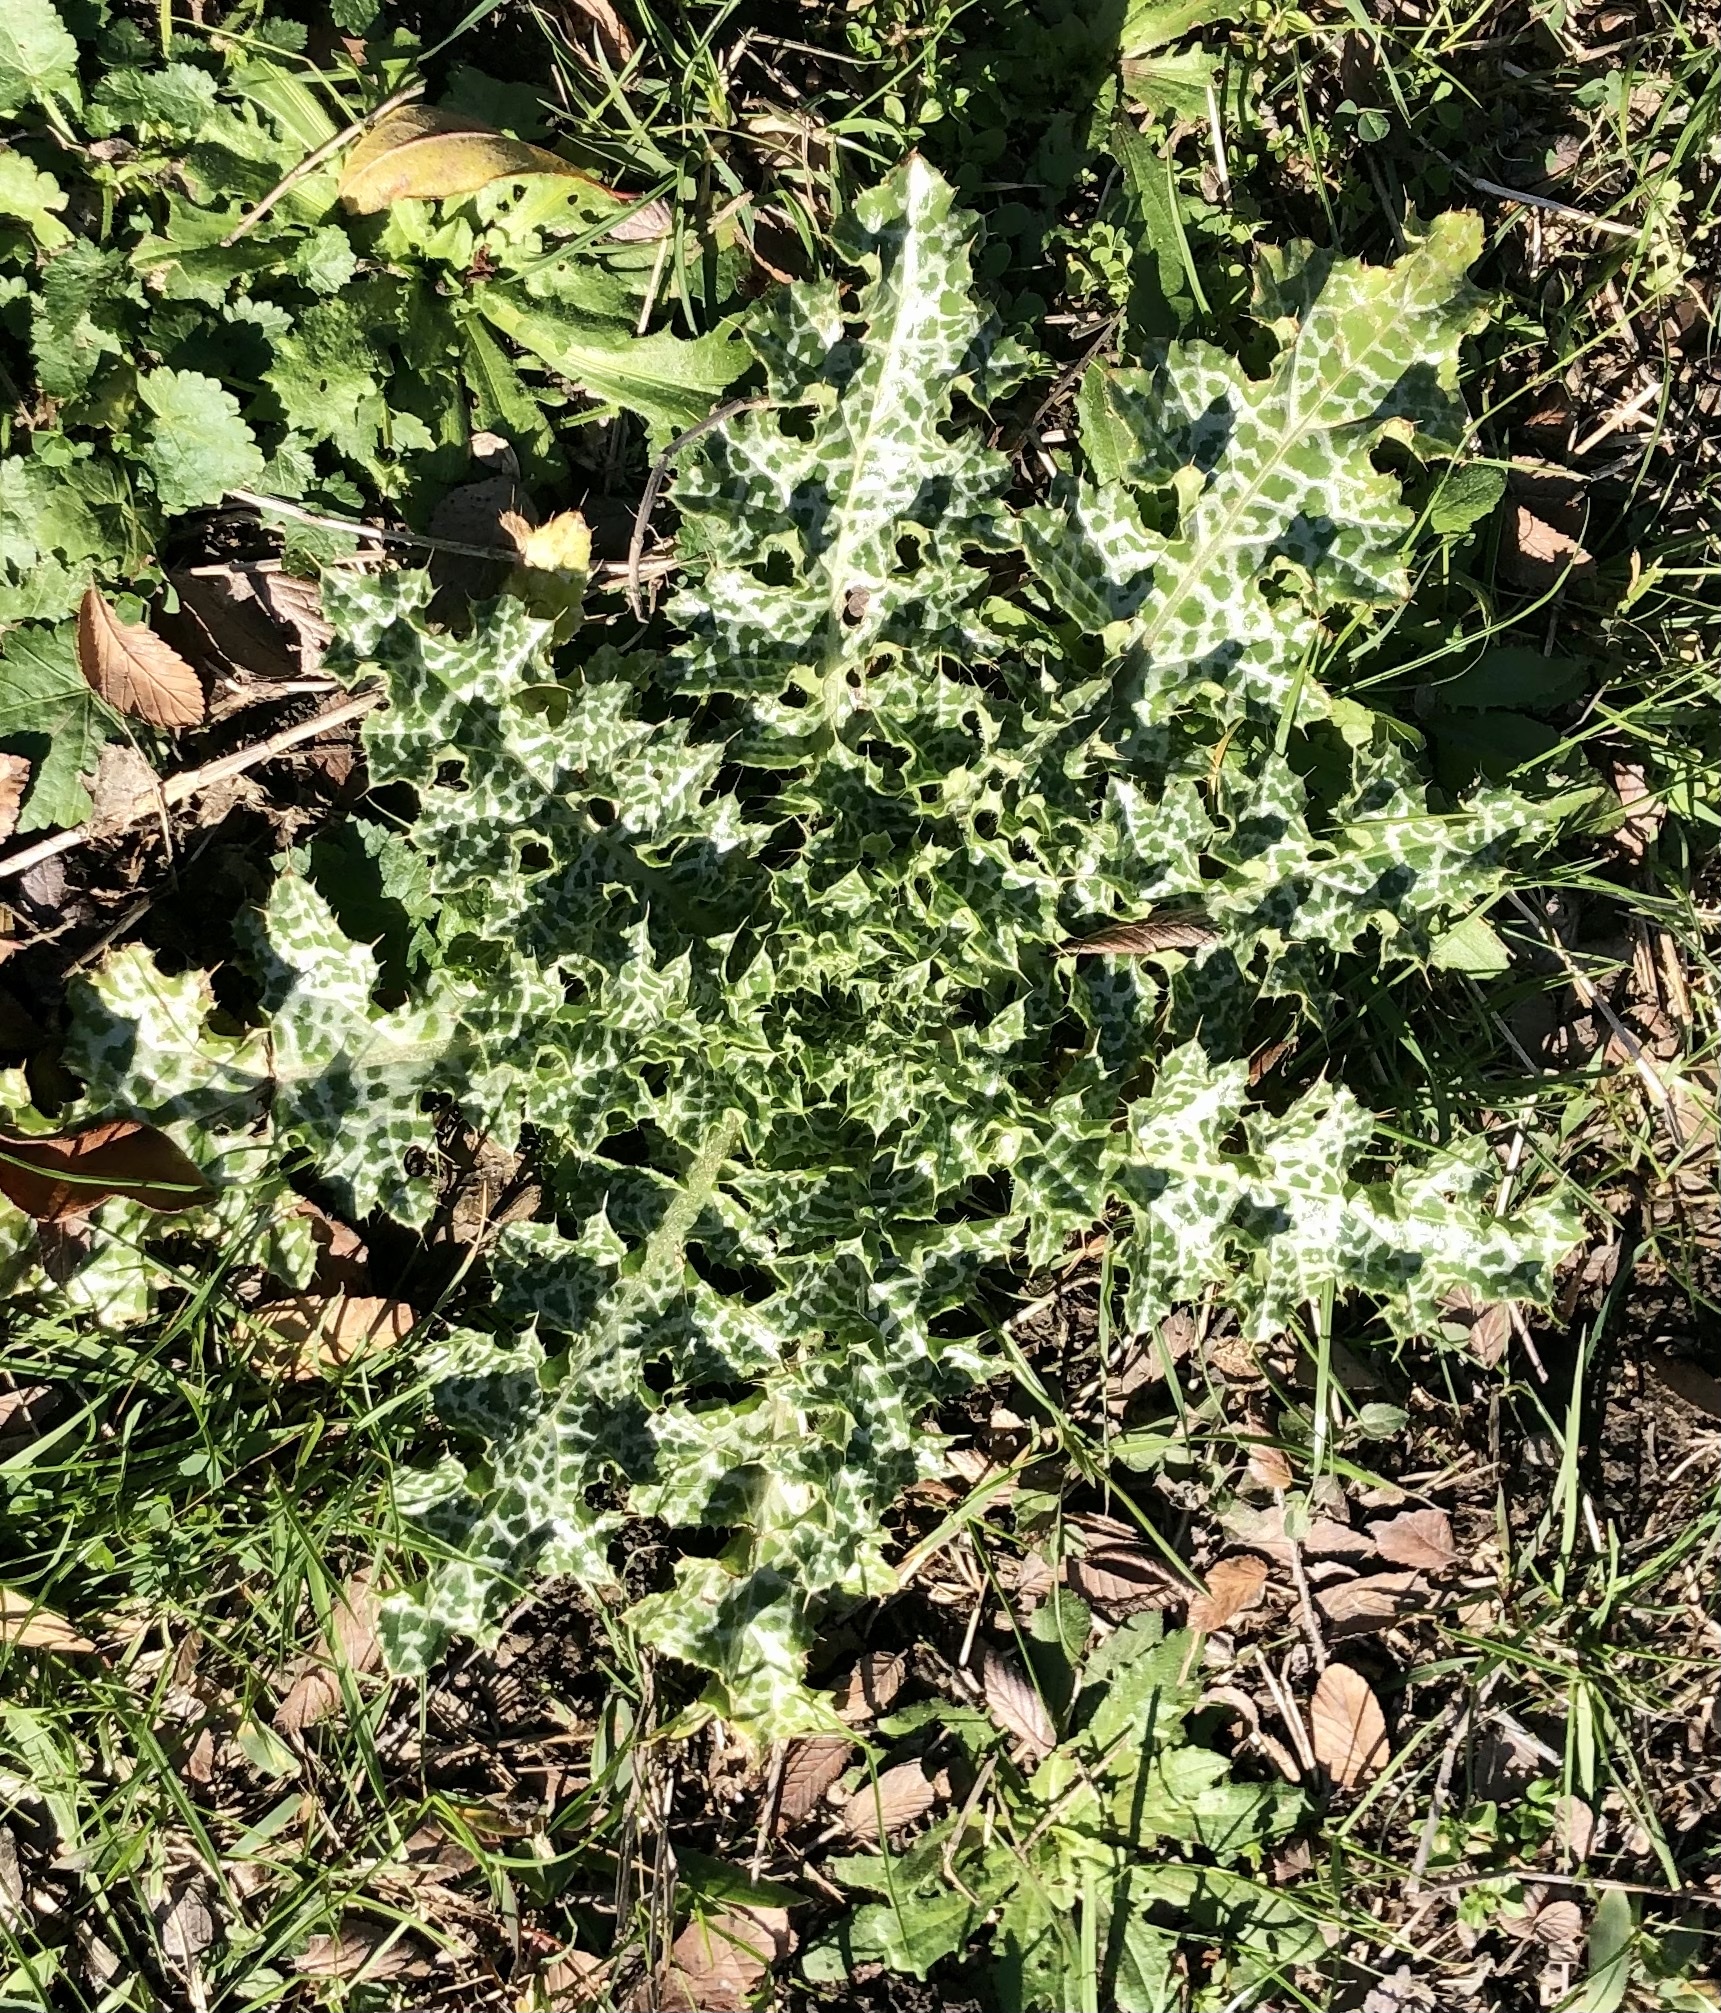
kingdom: Plantae
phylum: Tracheophyta
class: Magnoliopsida
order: Asterales
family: Asteraceae
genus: Silybum
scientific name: Silybum marianum
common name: Milk thistle
